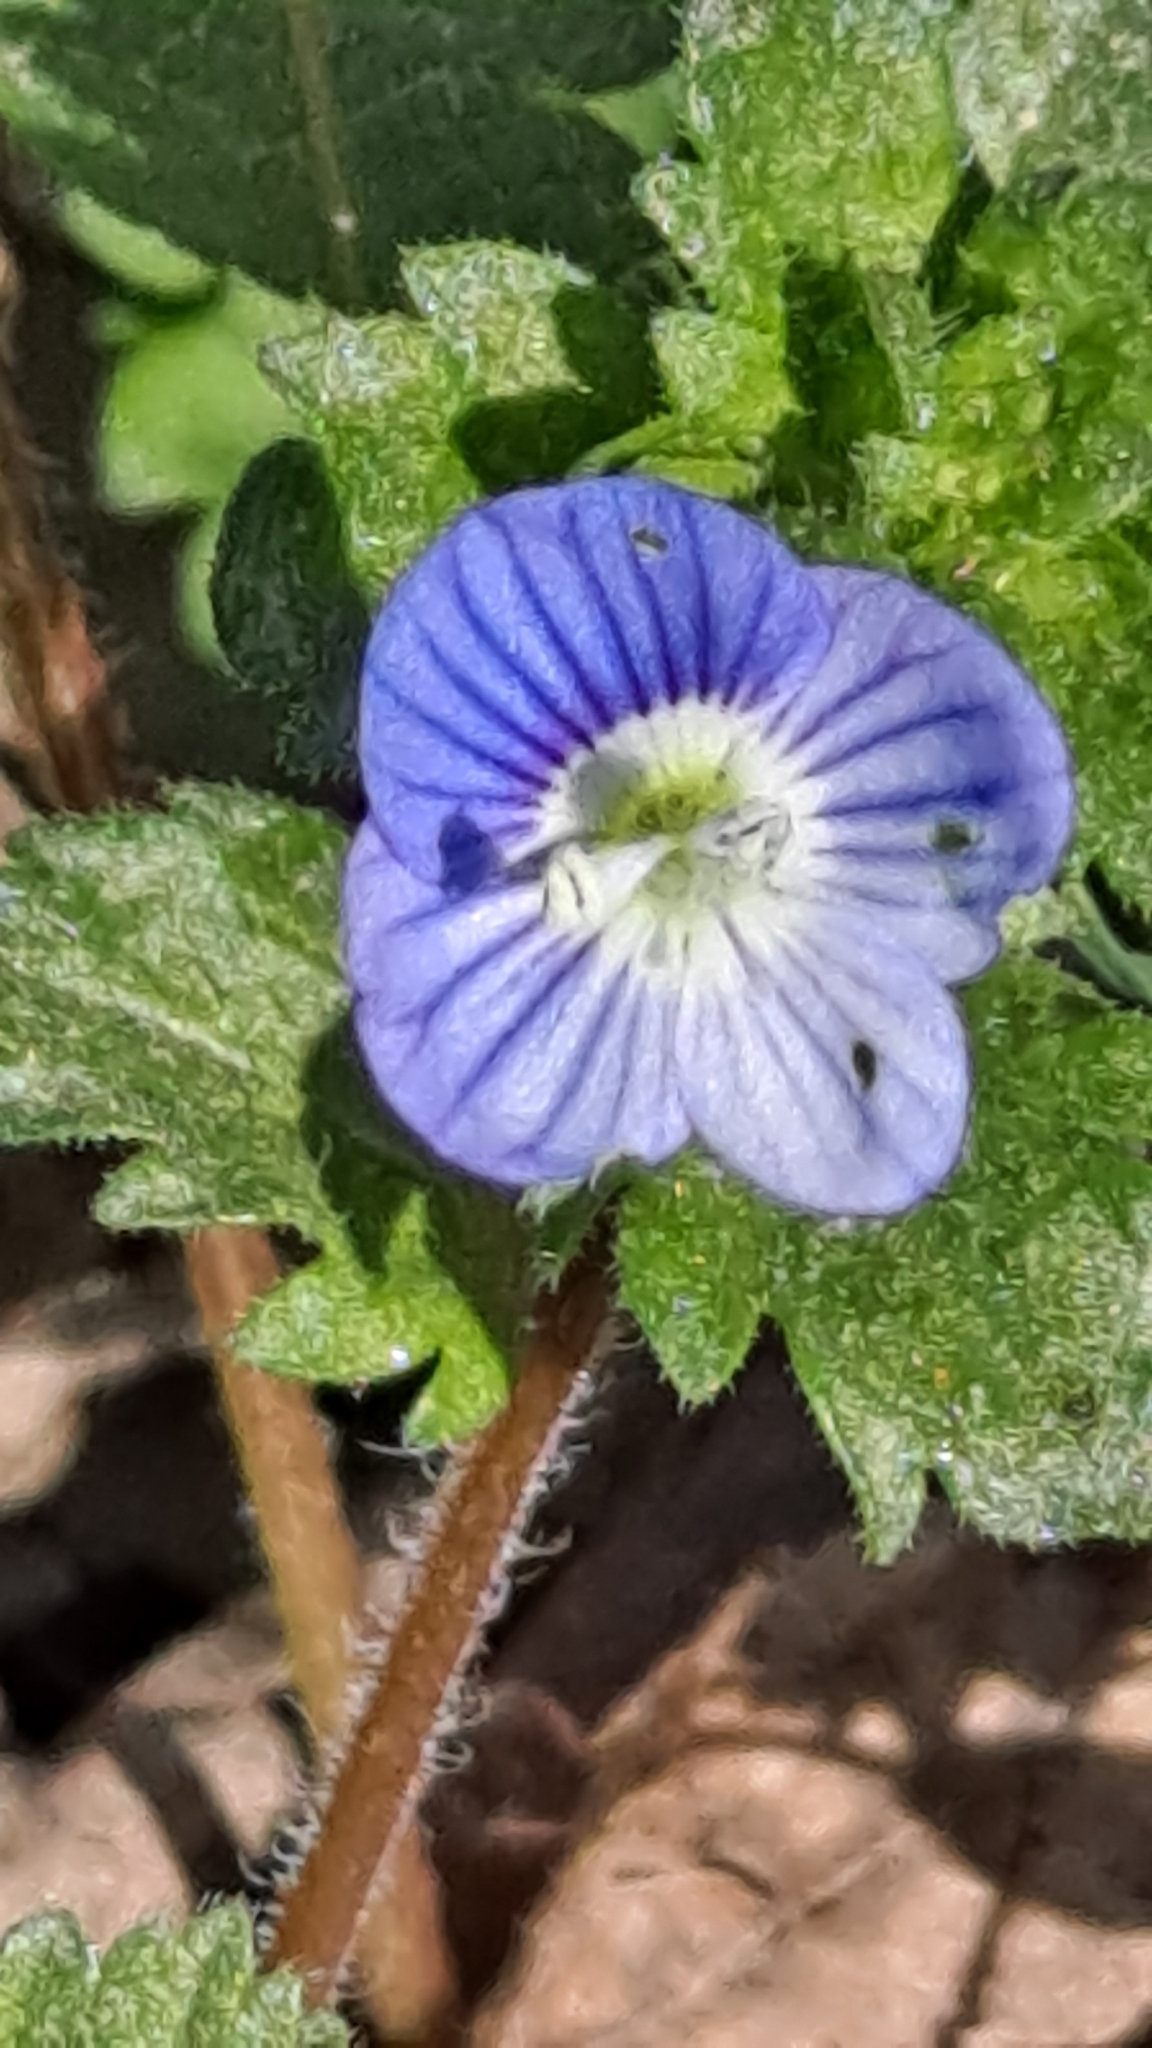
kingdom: Plantae
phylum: Tracheophyta
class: Magnoliopsida
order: Lamiales
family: Plantaginaceae
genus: Veronica
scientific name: Veronica persica
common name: Common field-speedwell
